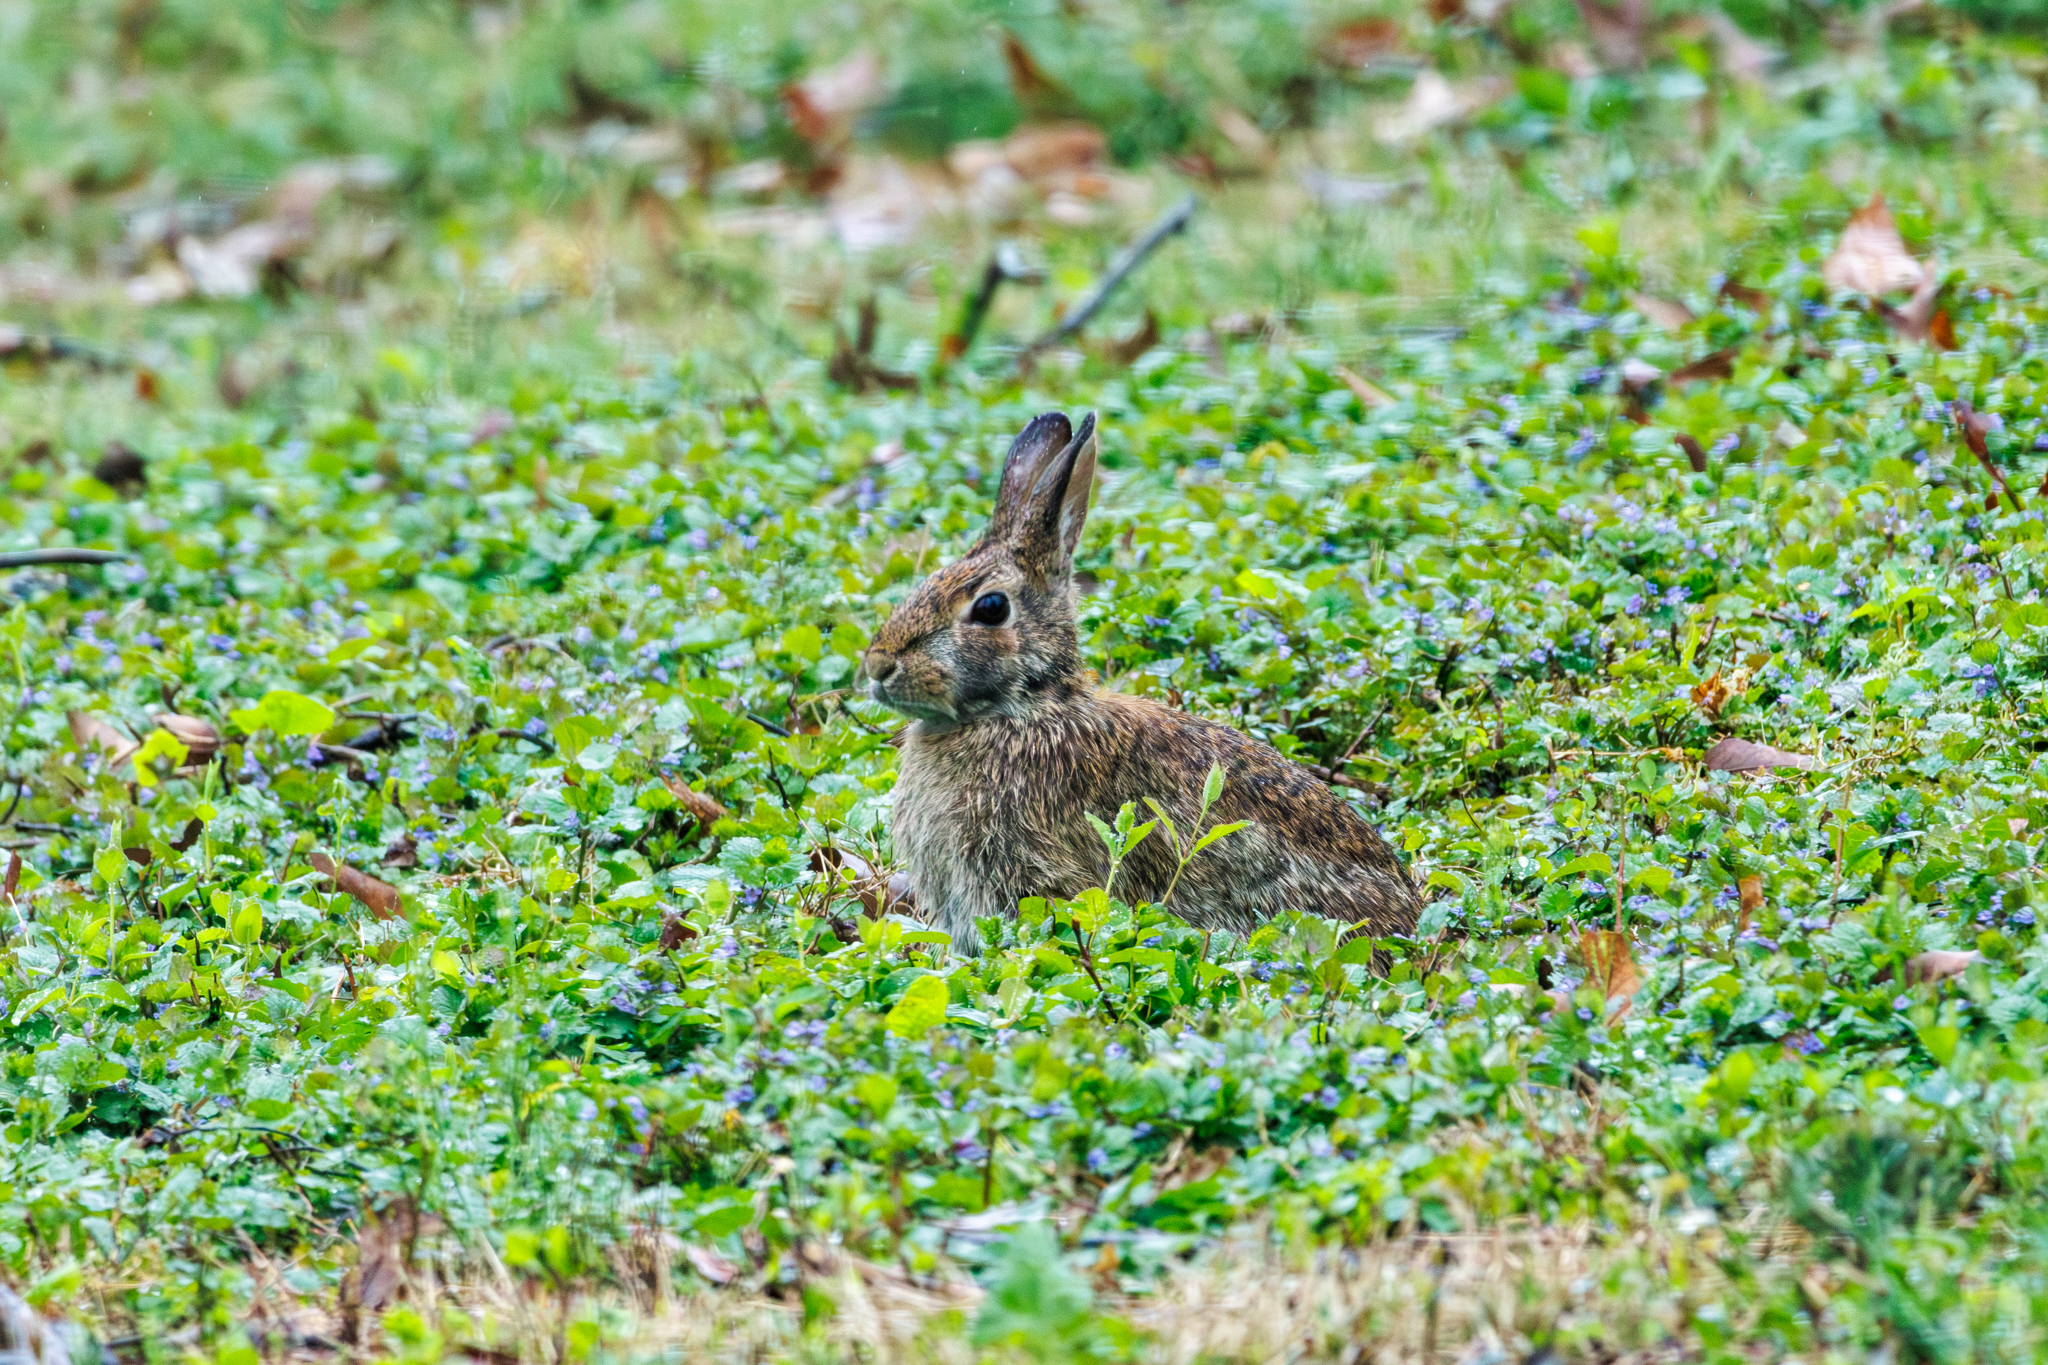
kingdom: Animalia
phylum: Chordata
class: Mammalia
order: Lagomorpha
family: Leporidae
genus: Sylvilagus
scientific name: Sylvilagus floridanus
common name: Eastern cottontail
